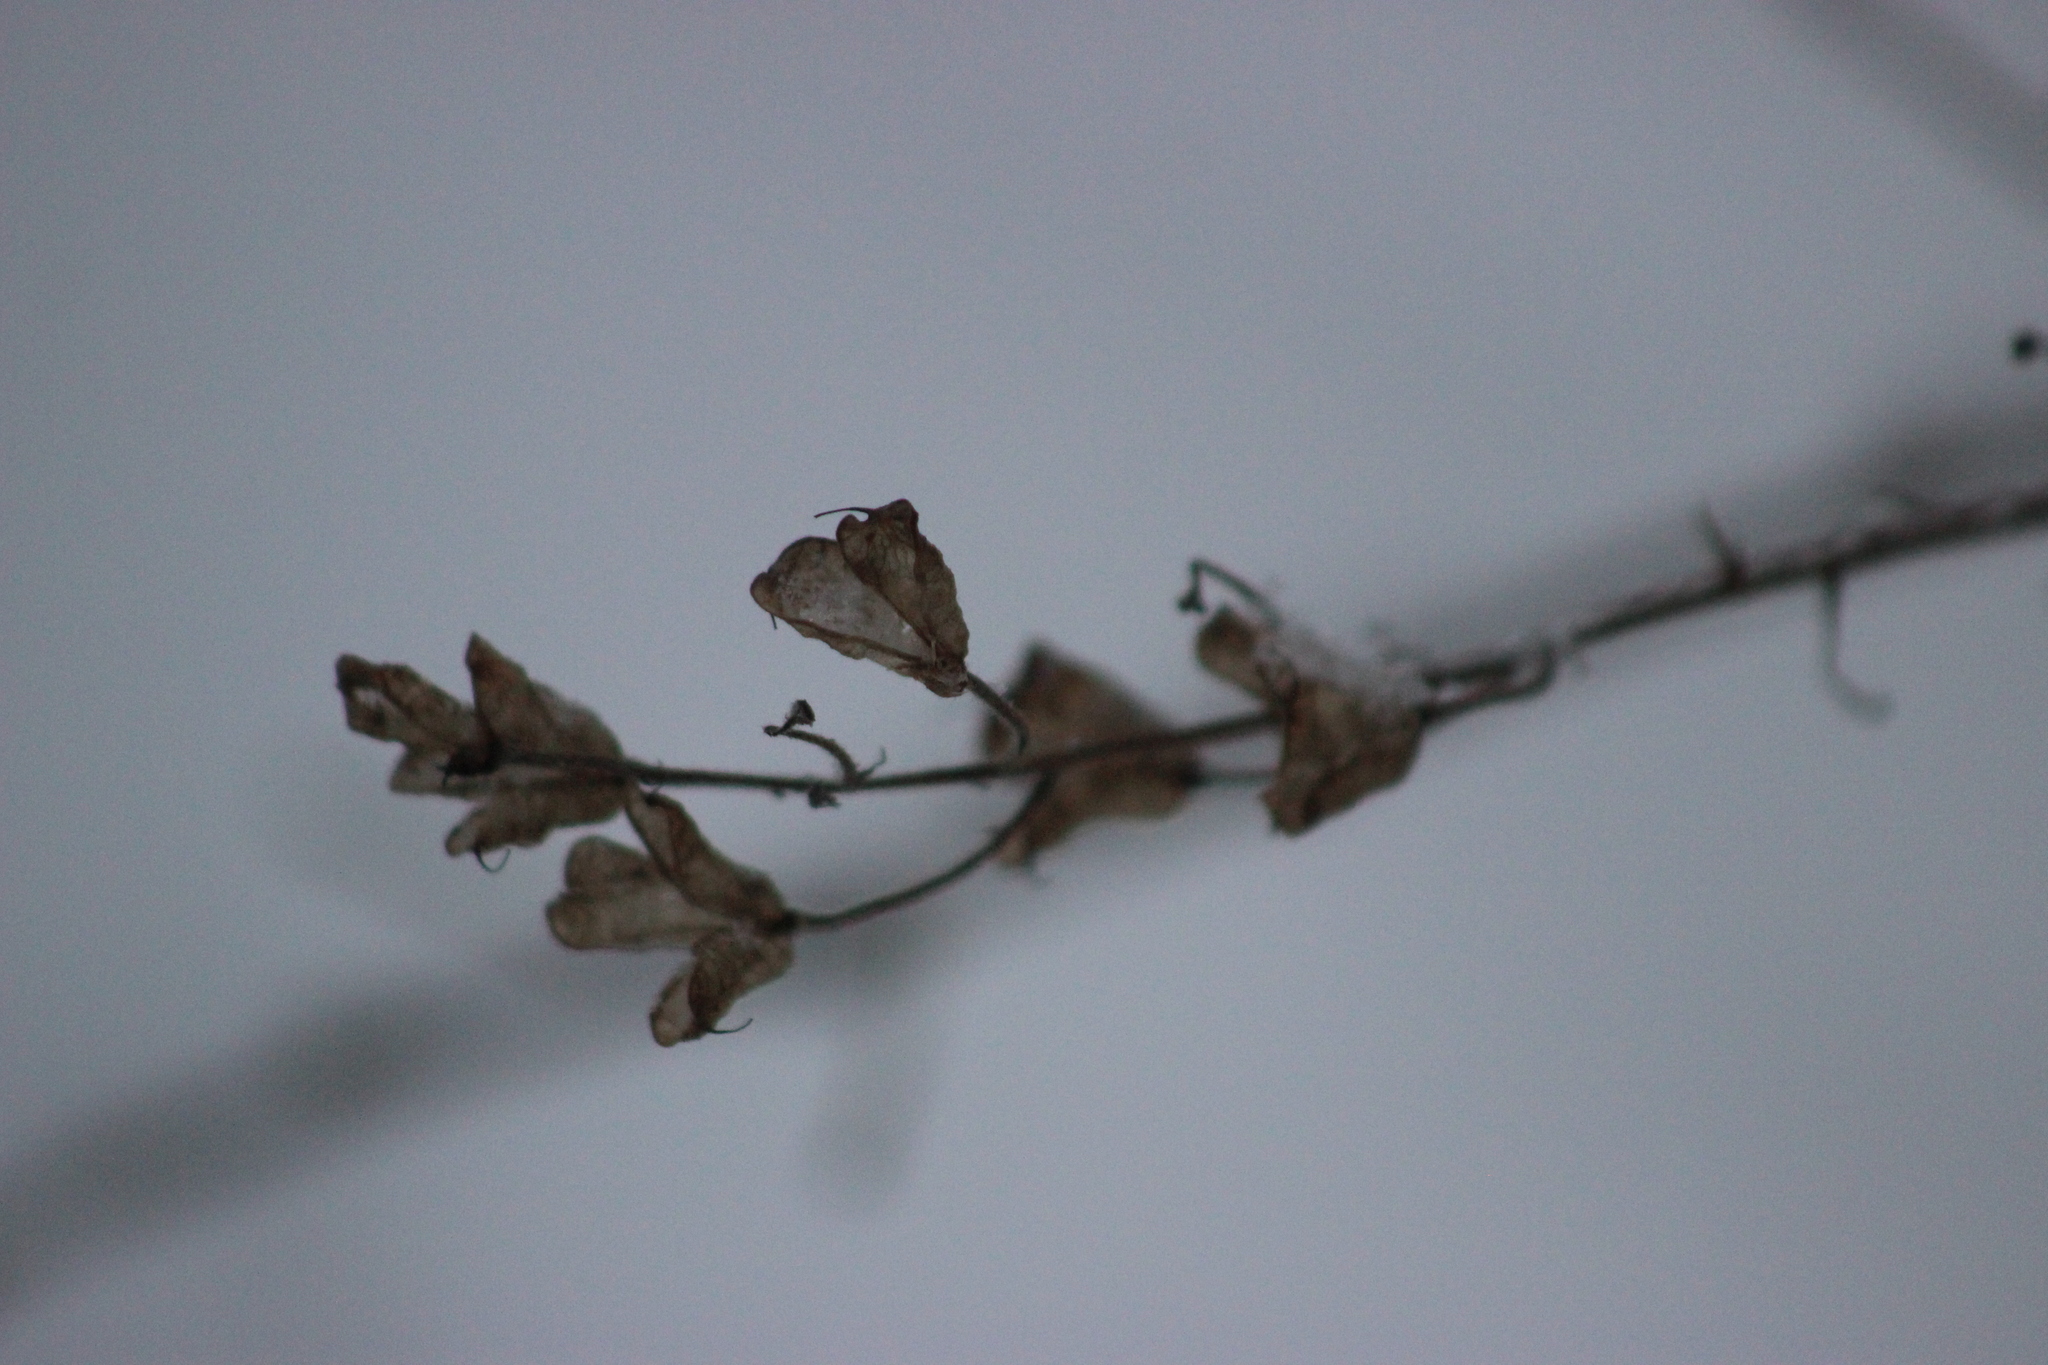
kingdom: Plantae
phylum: Tracheophyta
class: Magnoliopsida
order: Ranunculales
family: Ranunculaceae
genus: Aconitum
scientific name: Aconitum septentrionale
